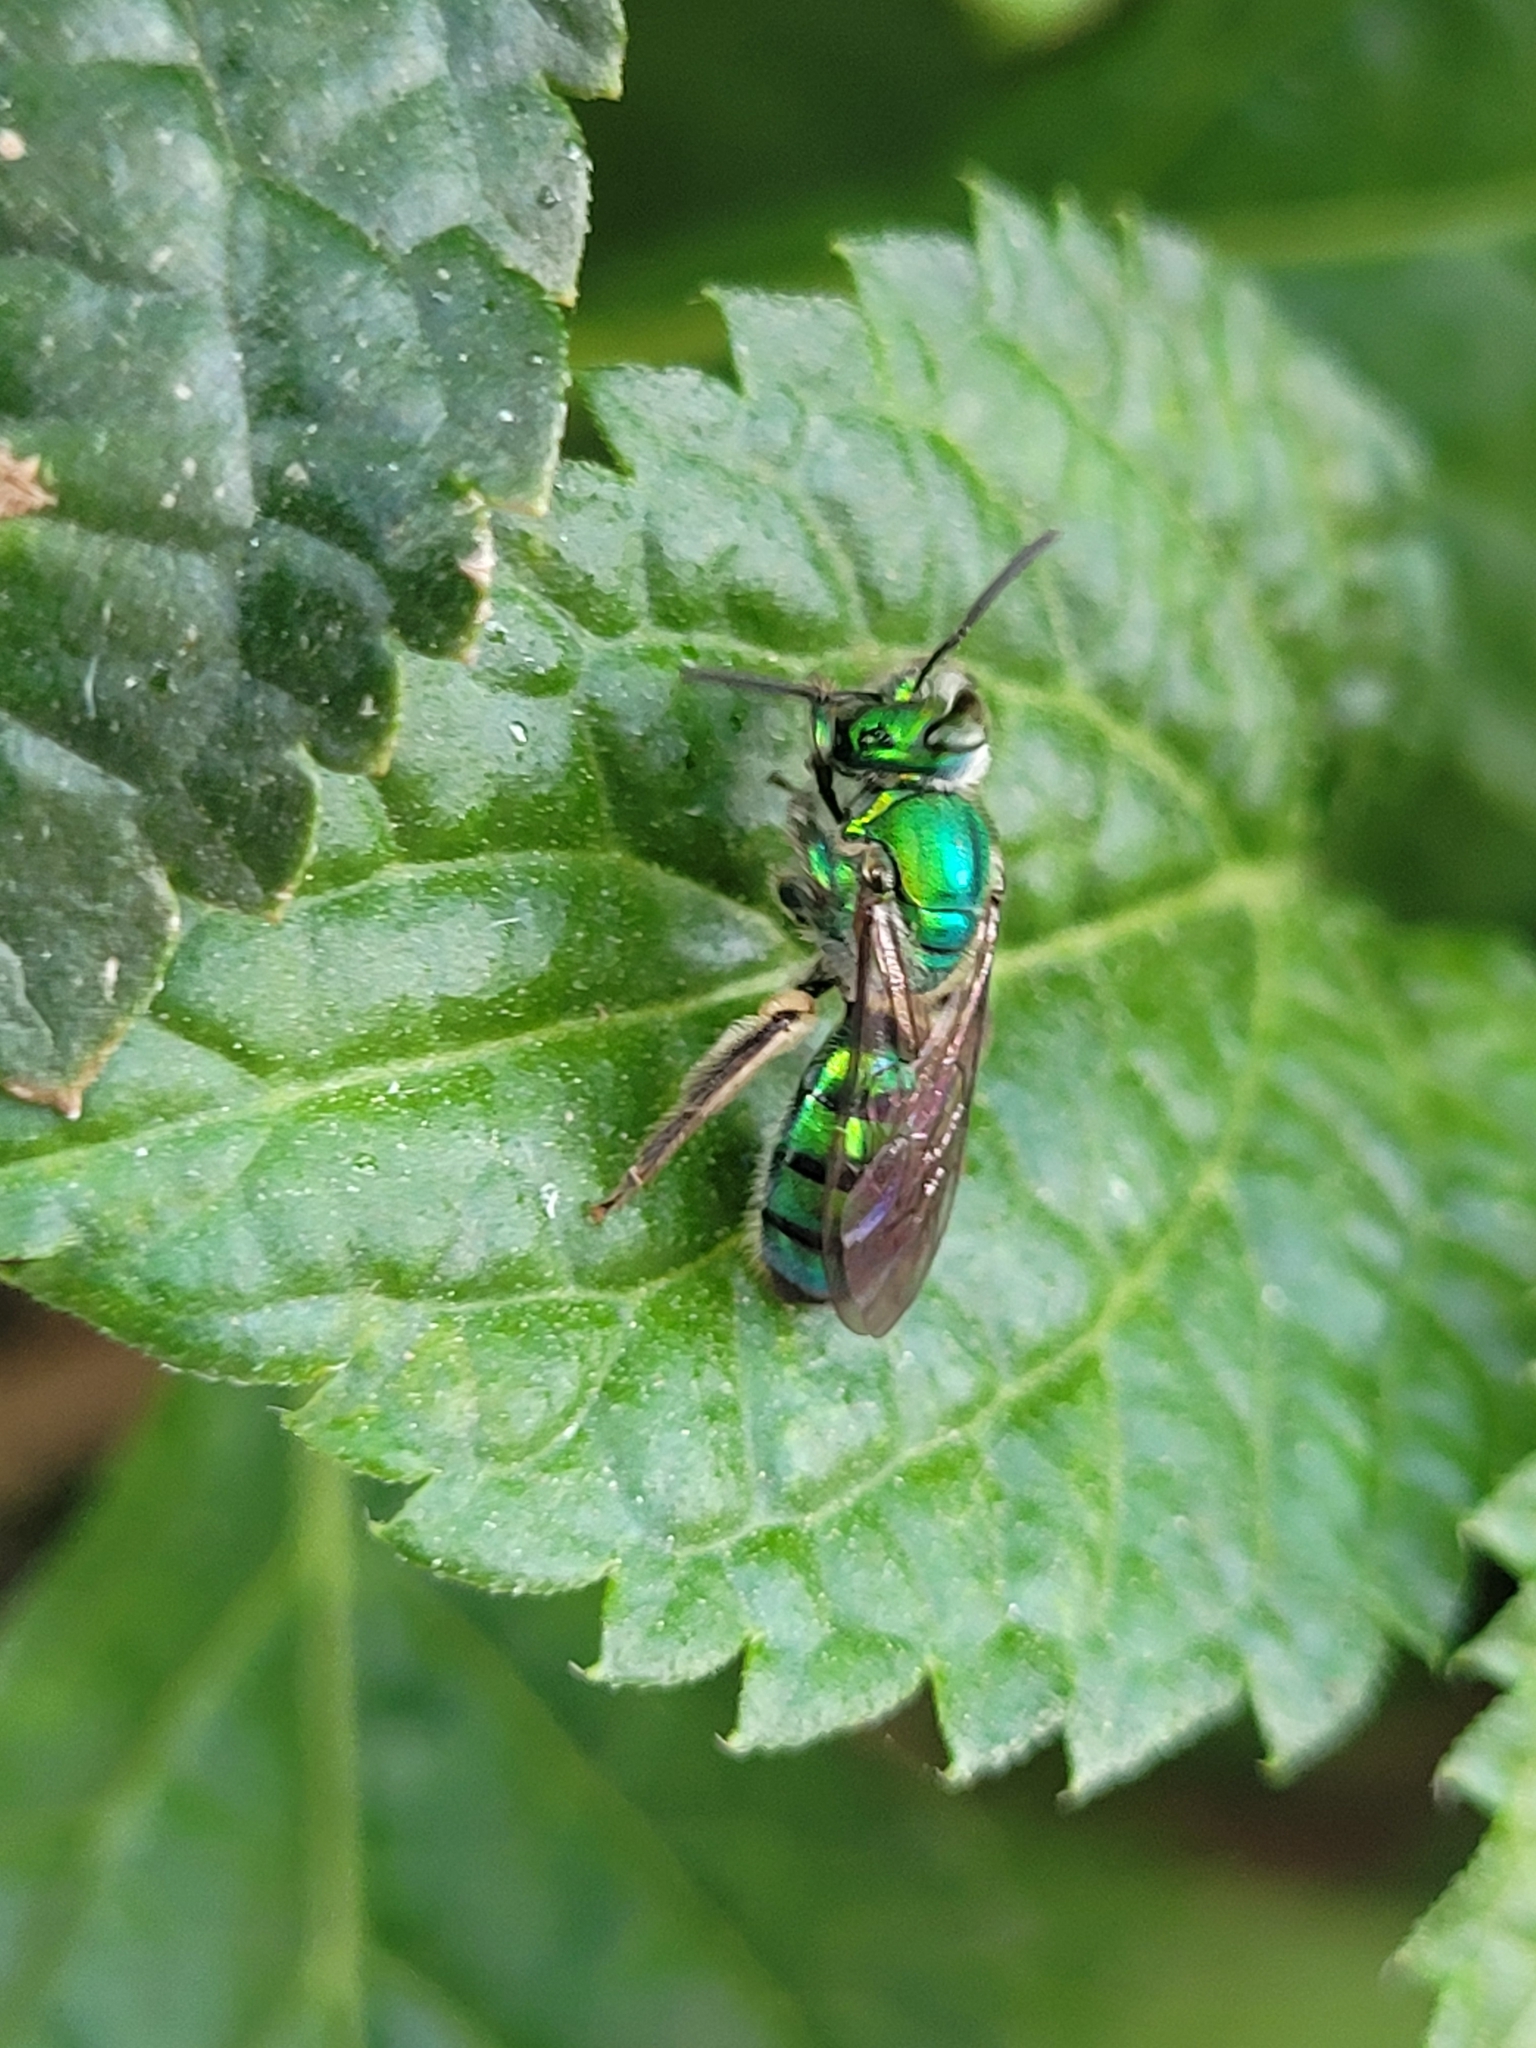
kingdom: Animalia
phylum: Arthropoda
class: Insecta
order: Hymenoptera
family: Halictidae
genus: Pseudaugochlora
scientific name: Pseudaugochlora graminea
